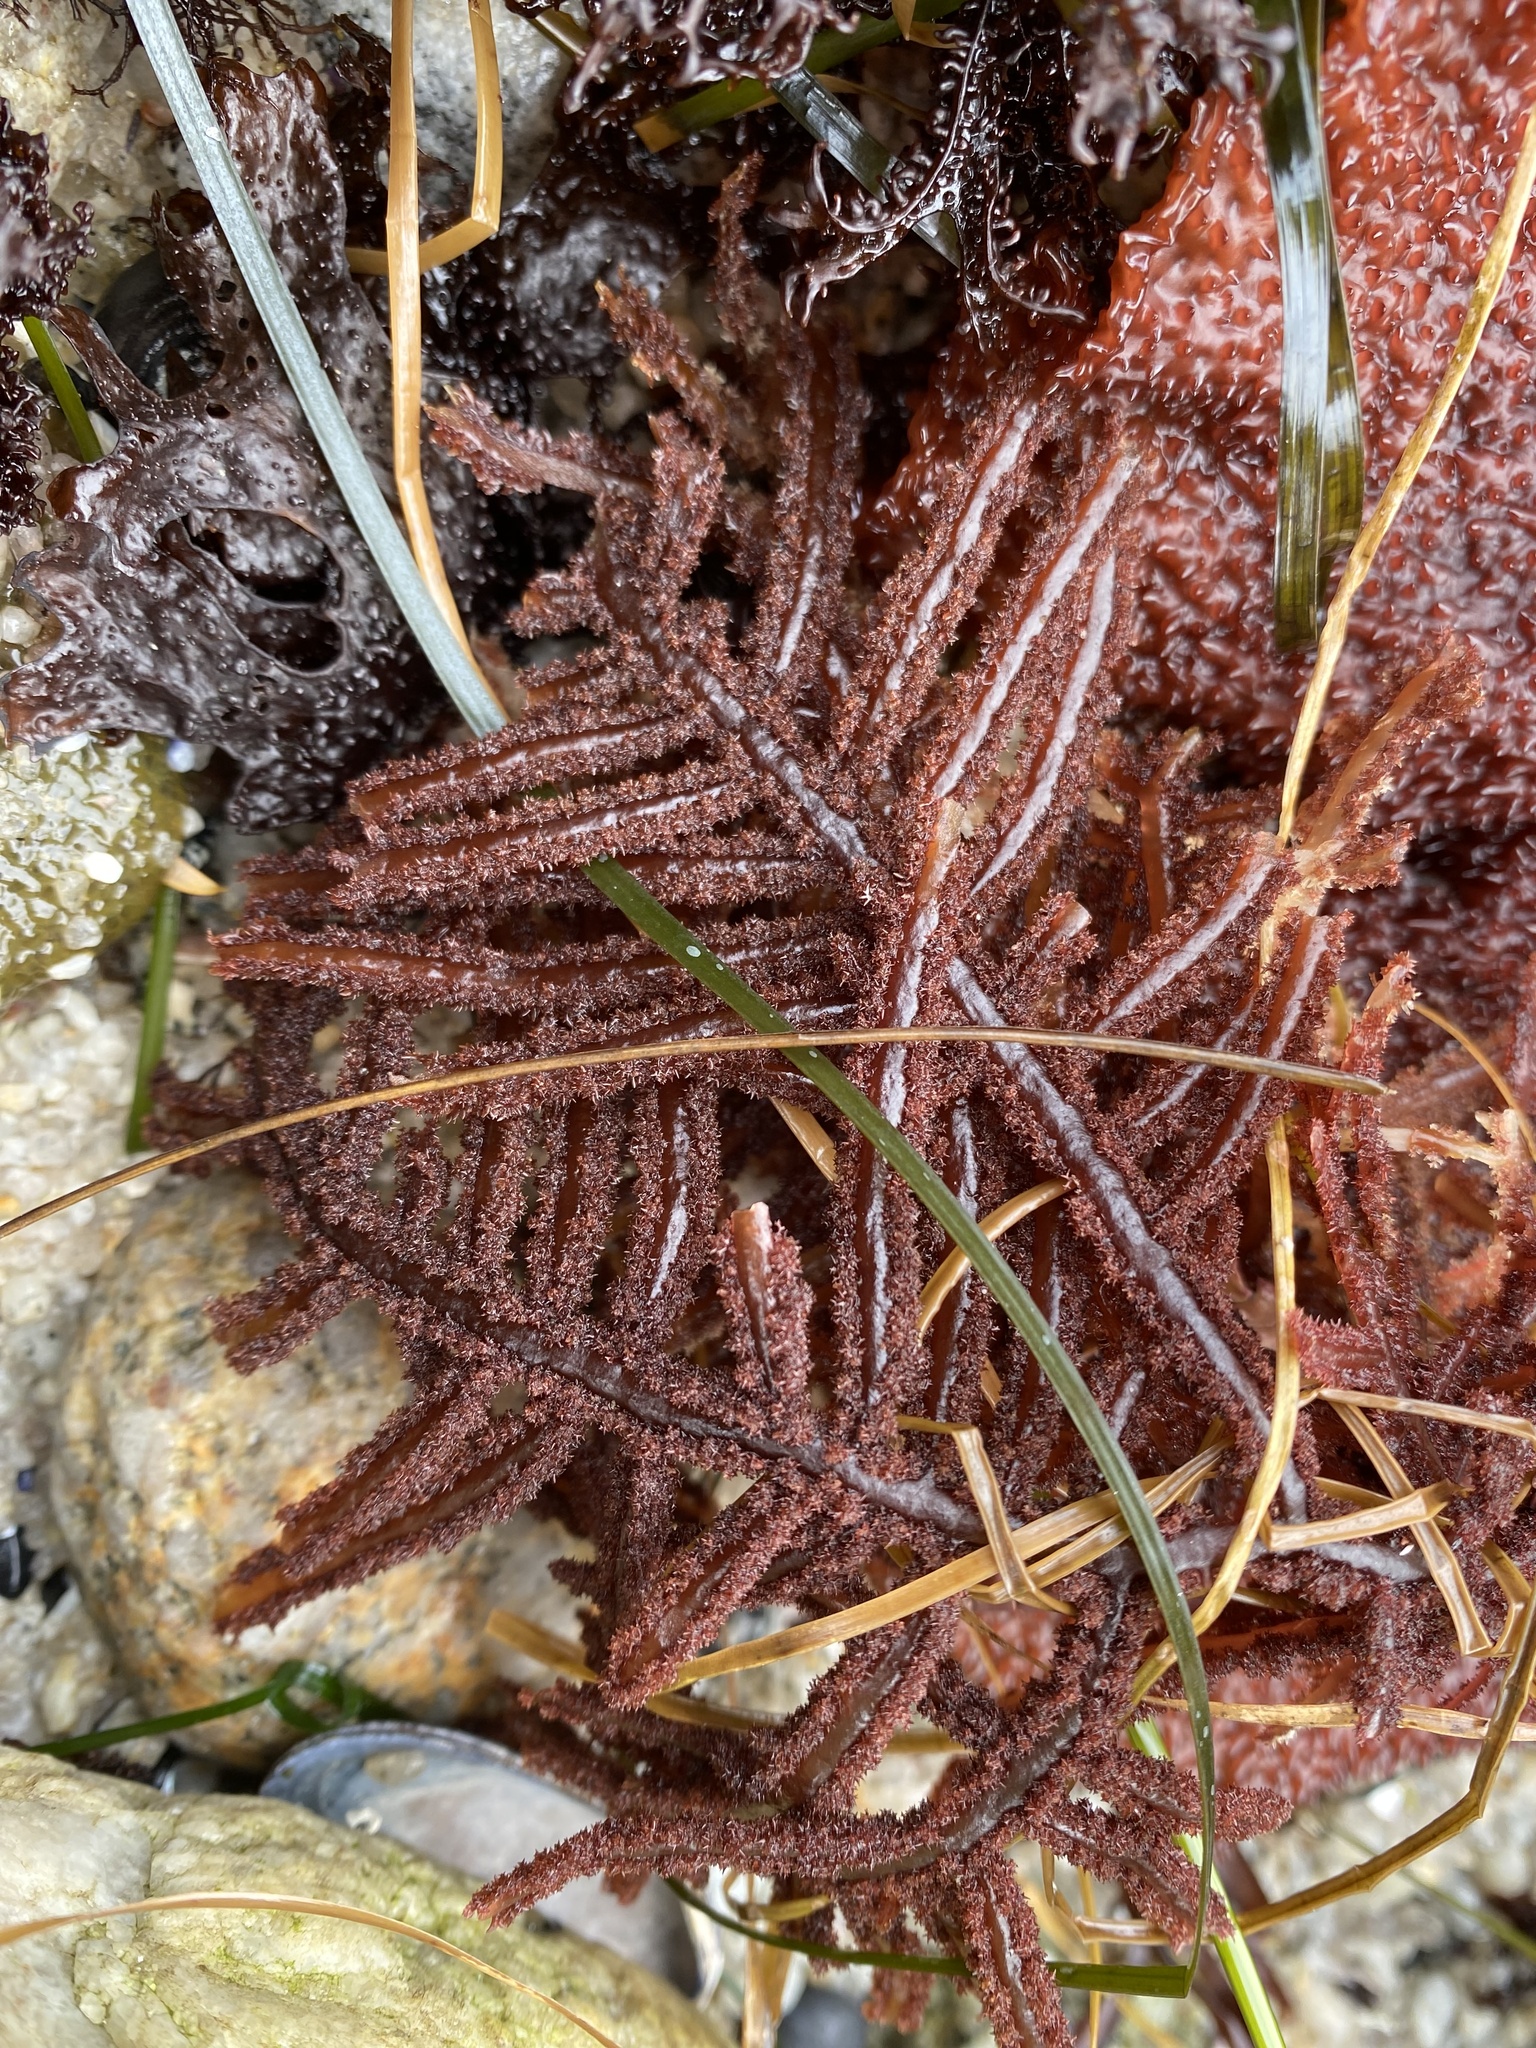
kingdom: Plantae
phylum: Rhodophyta
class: Florideophyceae
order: Ceramiales
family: Wrangeliaceae
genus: Neoptilota
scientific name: Neoptilota densa
